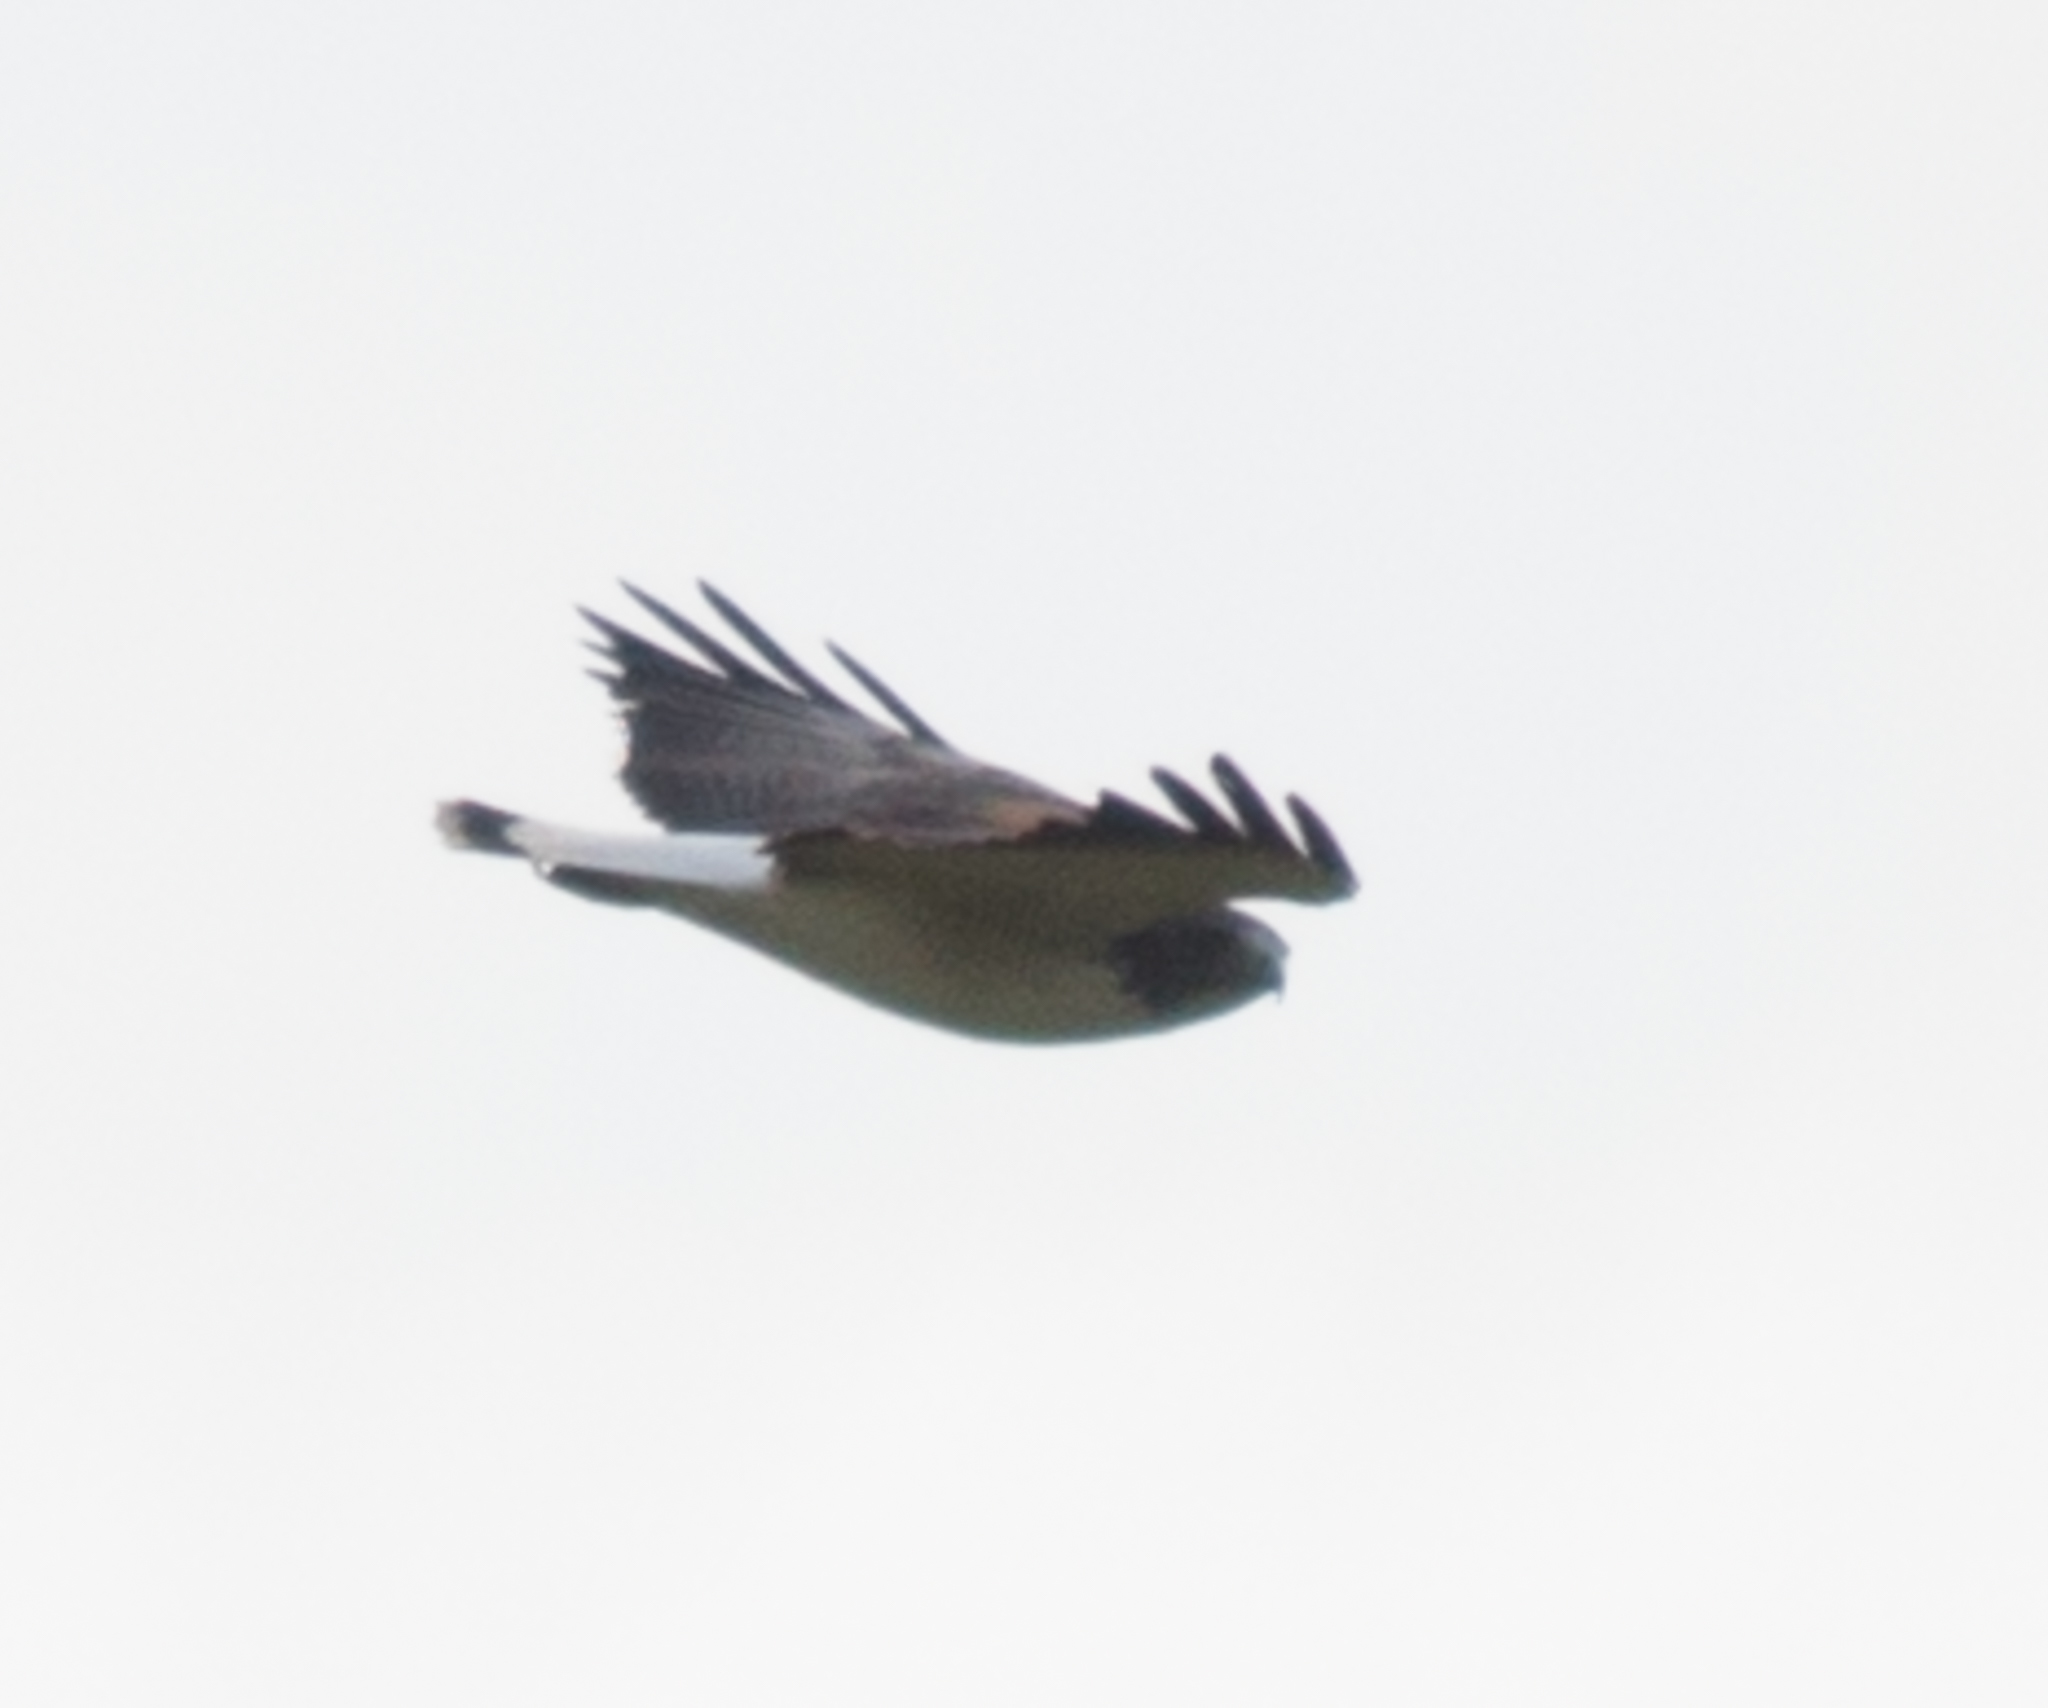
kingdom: Animalia
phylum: Chordata
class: Aves
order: Accipitriformes
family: Accipitridae
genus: Buteo
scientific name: Buteo albicaudatus
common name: White-tailed hawk
